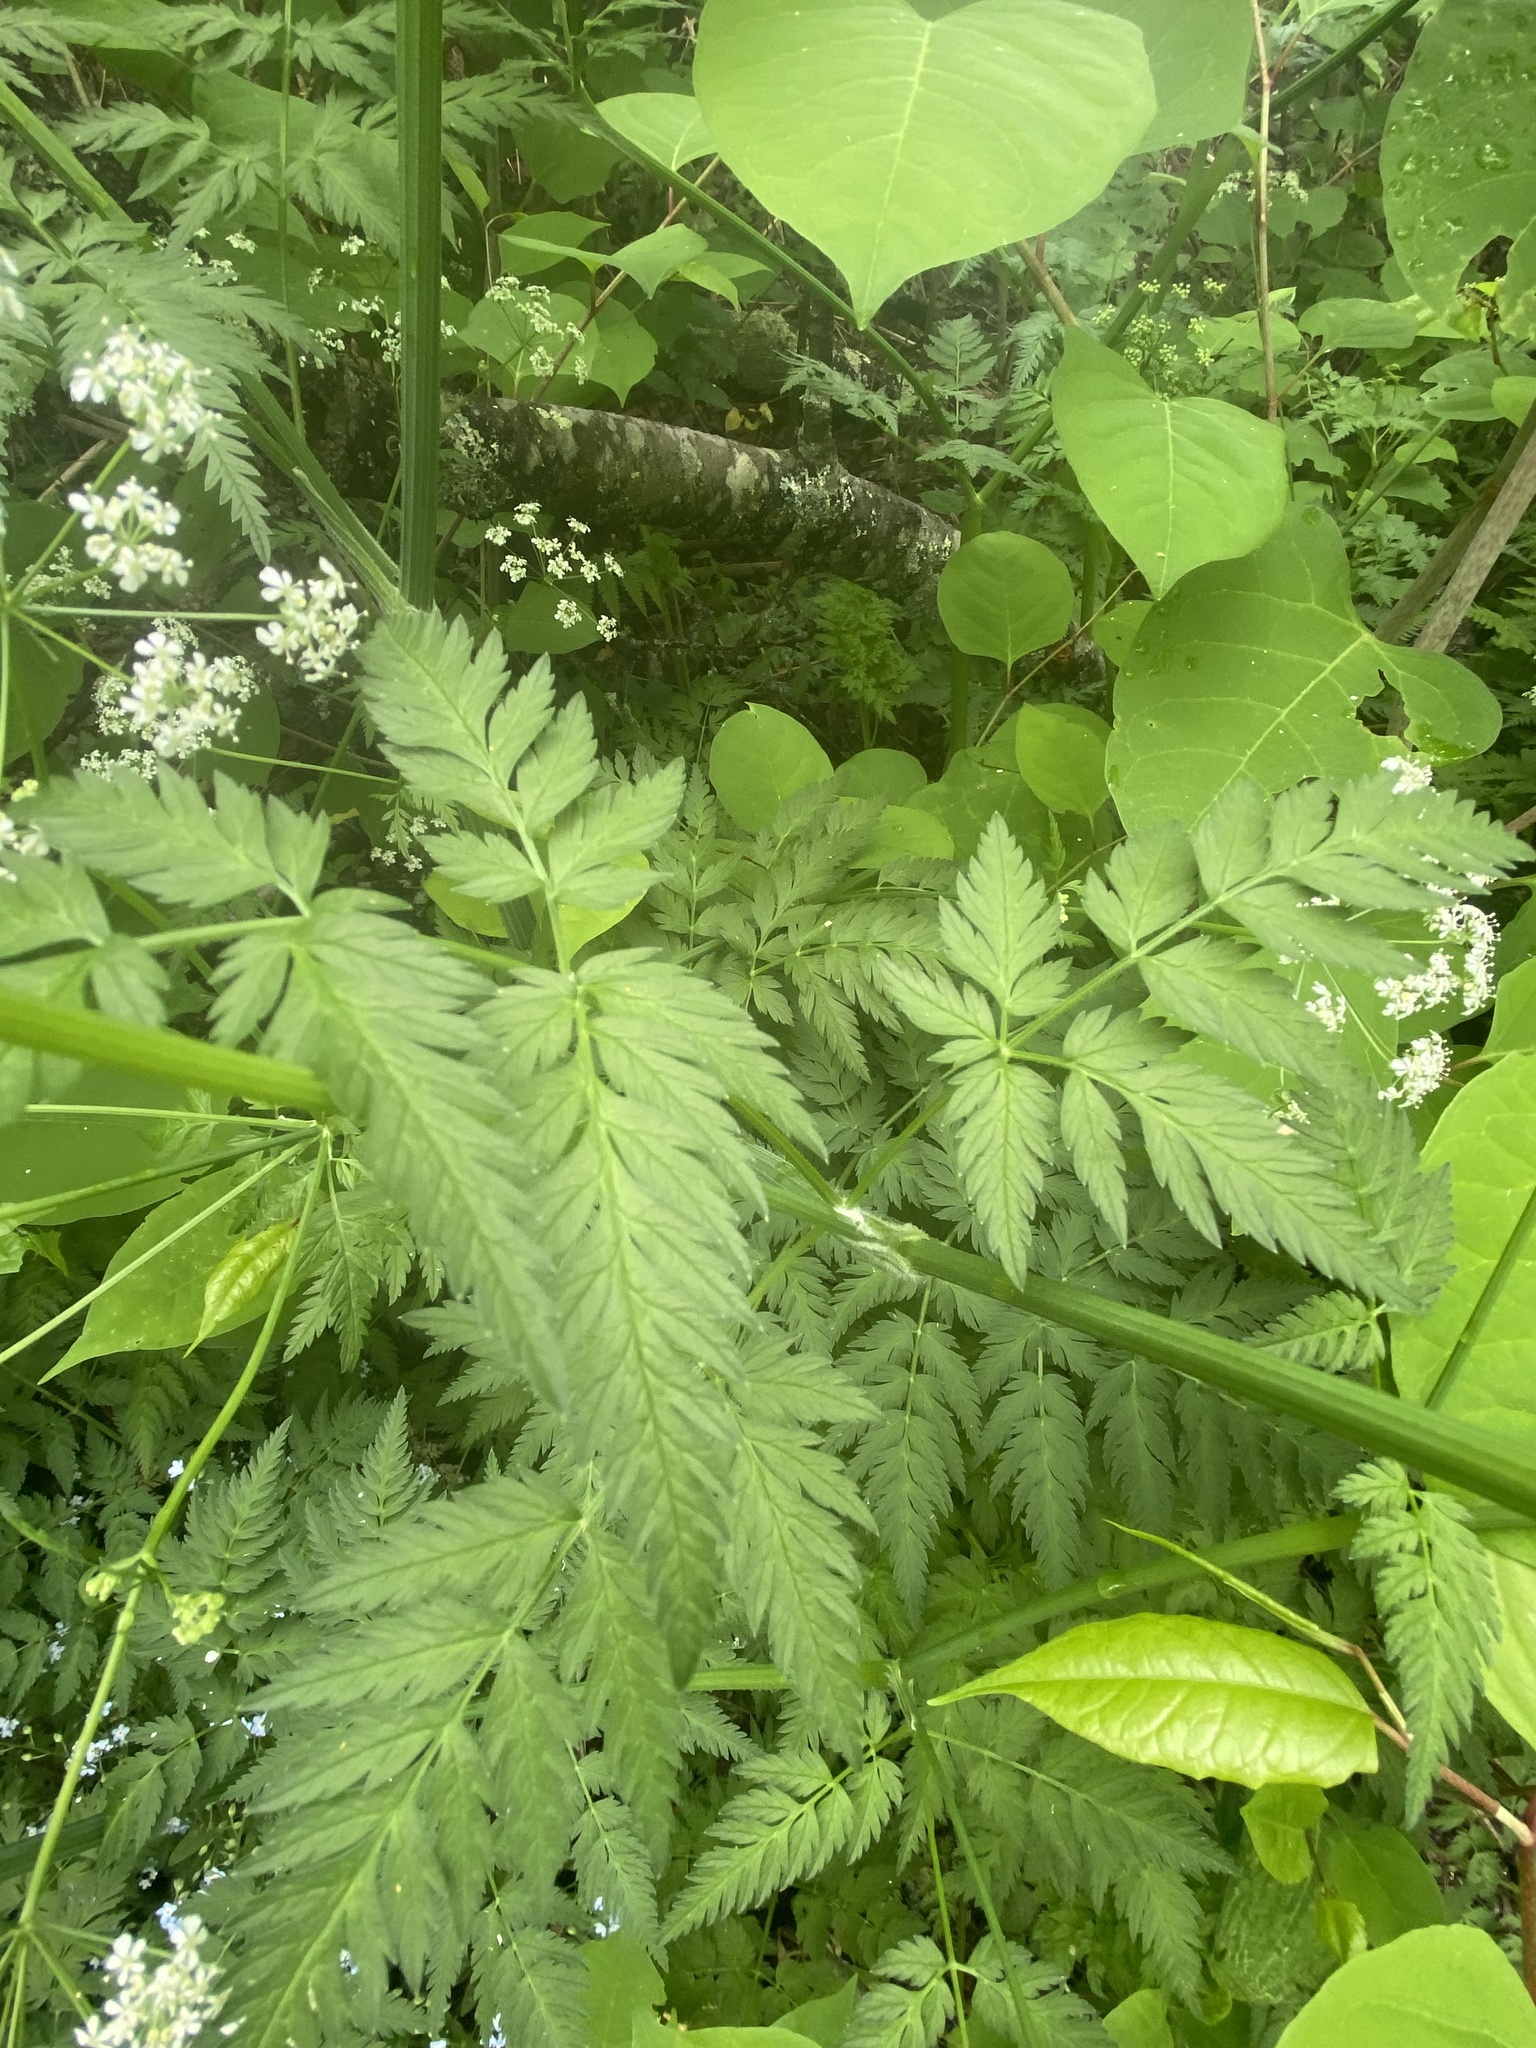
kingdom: Plantae
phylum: Tracheophyta
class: Magnoliopsida
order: Apiales
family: Apiaceae
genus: Anthriscus
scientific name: Anthriscus sylvestris
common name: Cow parsley
